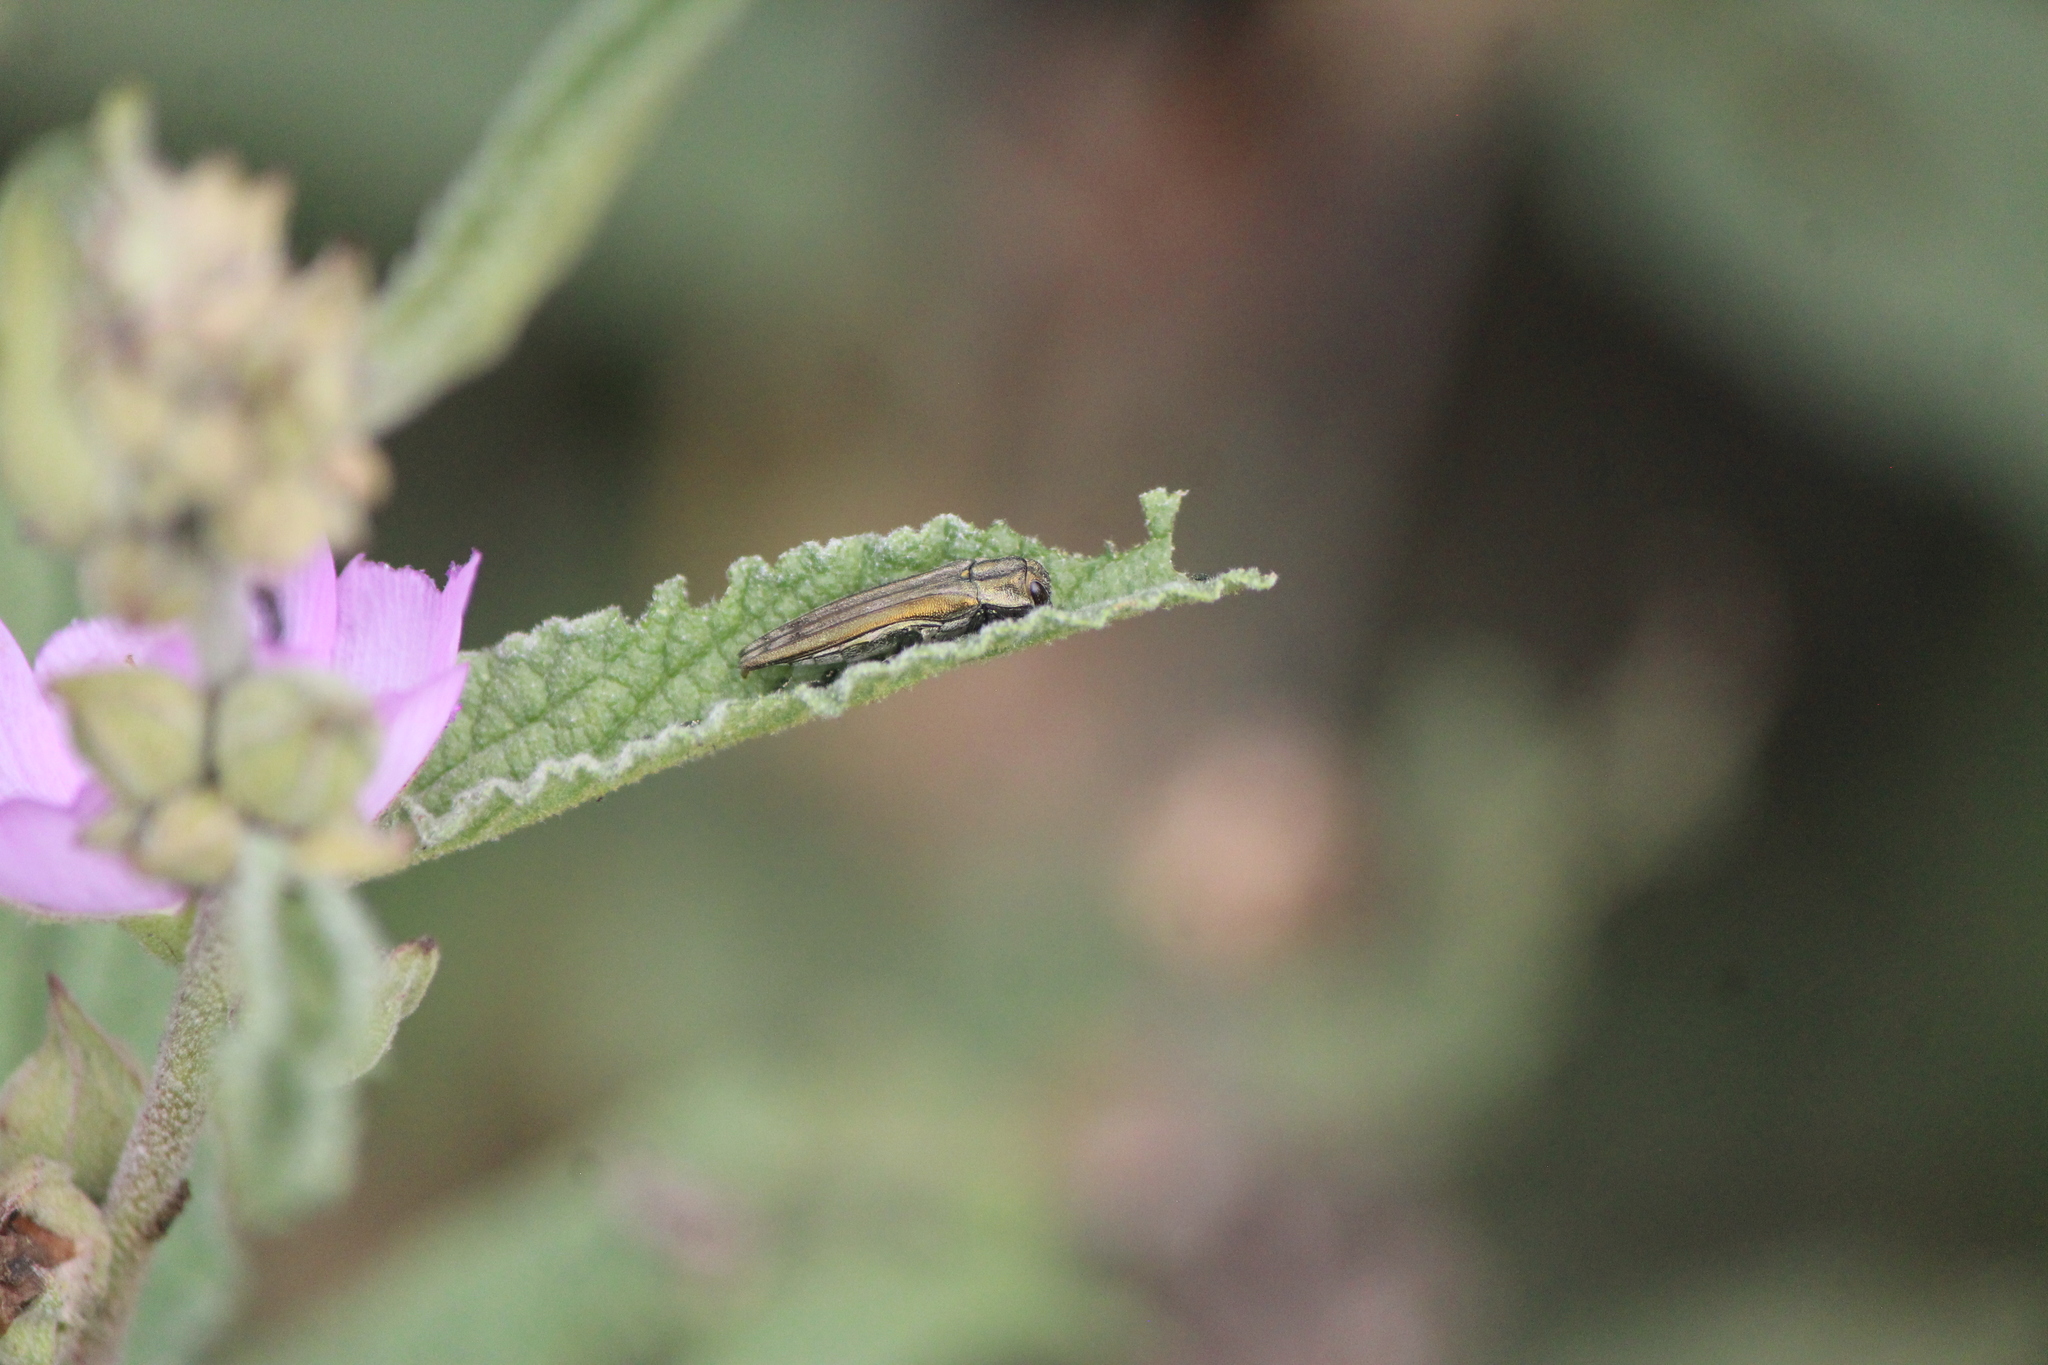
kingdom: Animalia
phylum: Arthropoda
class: Insecta
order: Coleoptera
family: Buprestidae
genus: Agrilus
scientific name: Agrilus aureus
